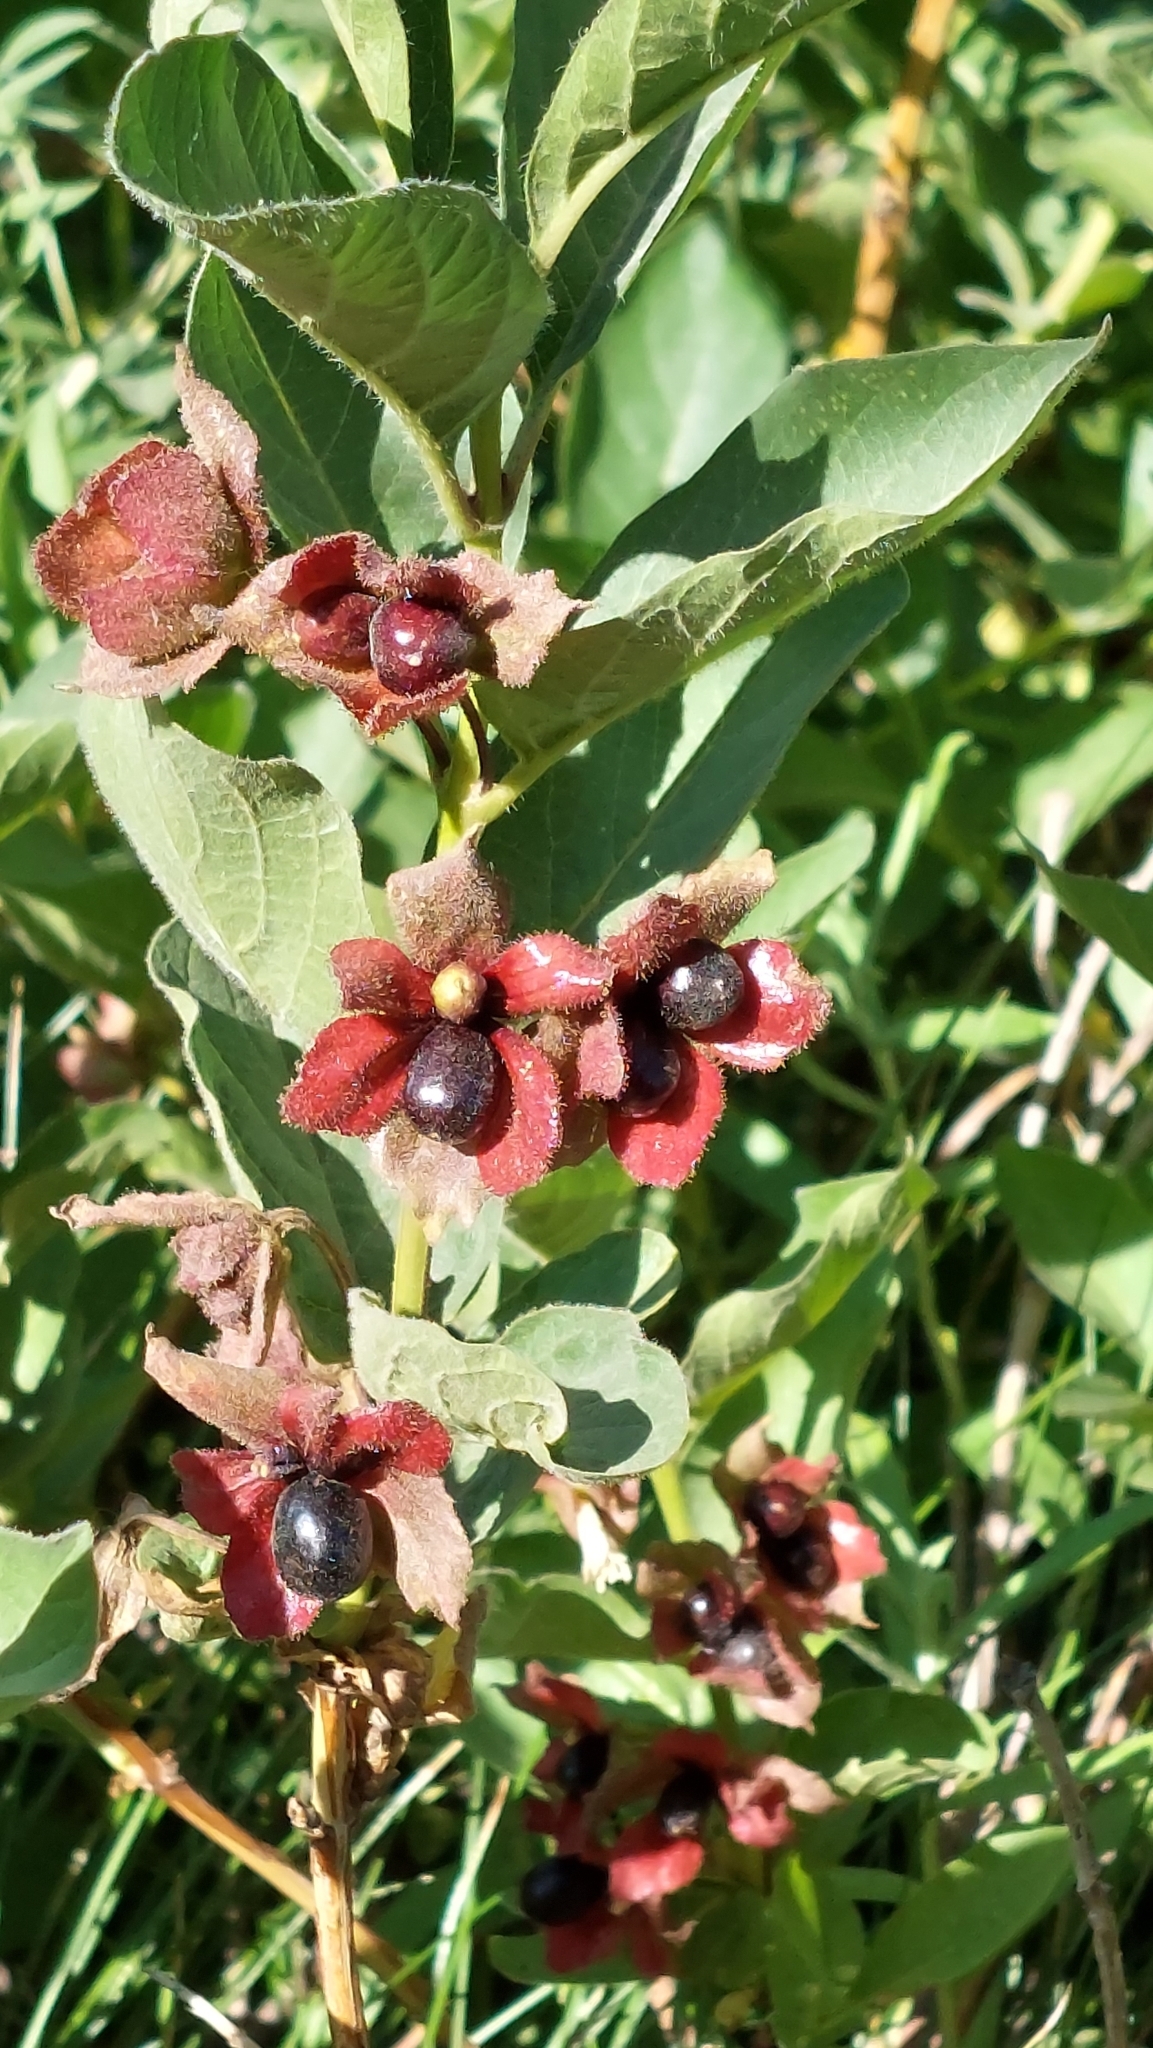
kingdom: Plantae
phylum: Tracheophyta
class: Magnoliopsida
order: Dipsacales
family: Caprifoliaceae
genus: Lonicera
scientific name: Lonicera involucrata
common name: Californian honeysuckle
